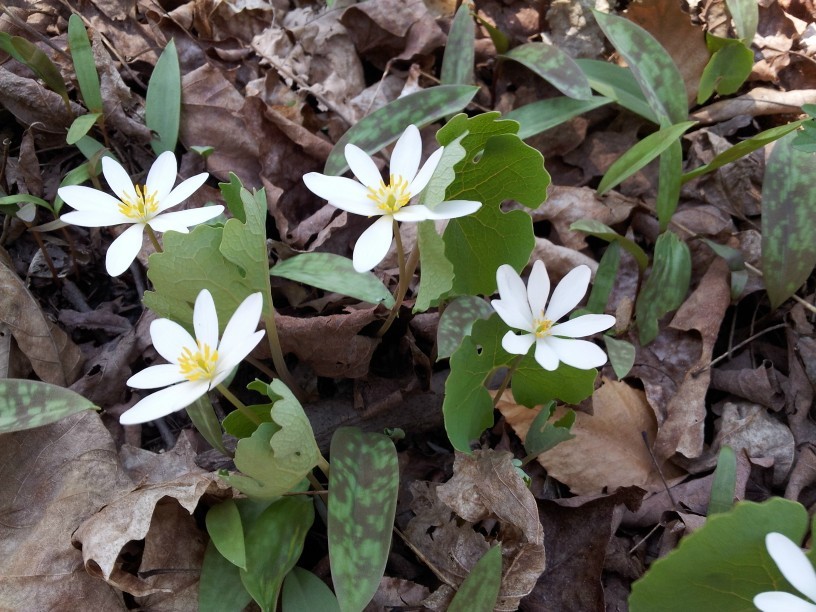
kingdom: Plantae
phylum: Tracheophyta
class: Magnoliopsida
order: Ranunculales
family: Papaveraceae
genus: Sanguinaria
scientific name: Sanguinaria canadensis
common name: Bloodroot
